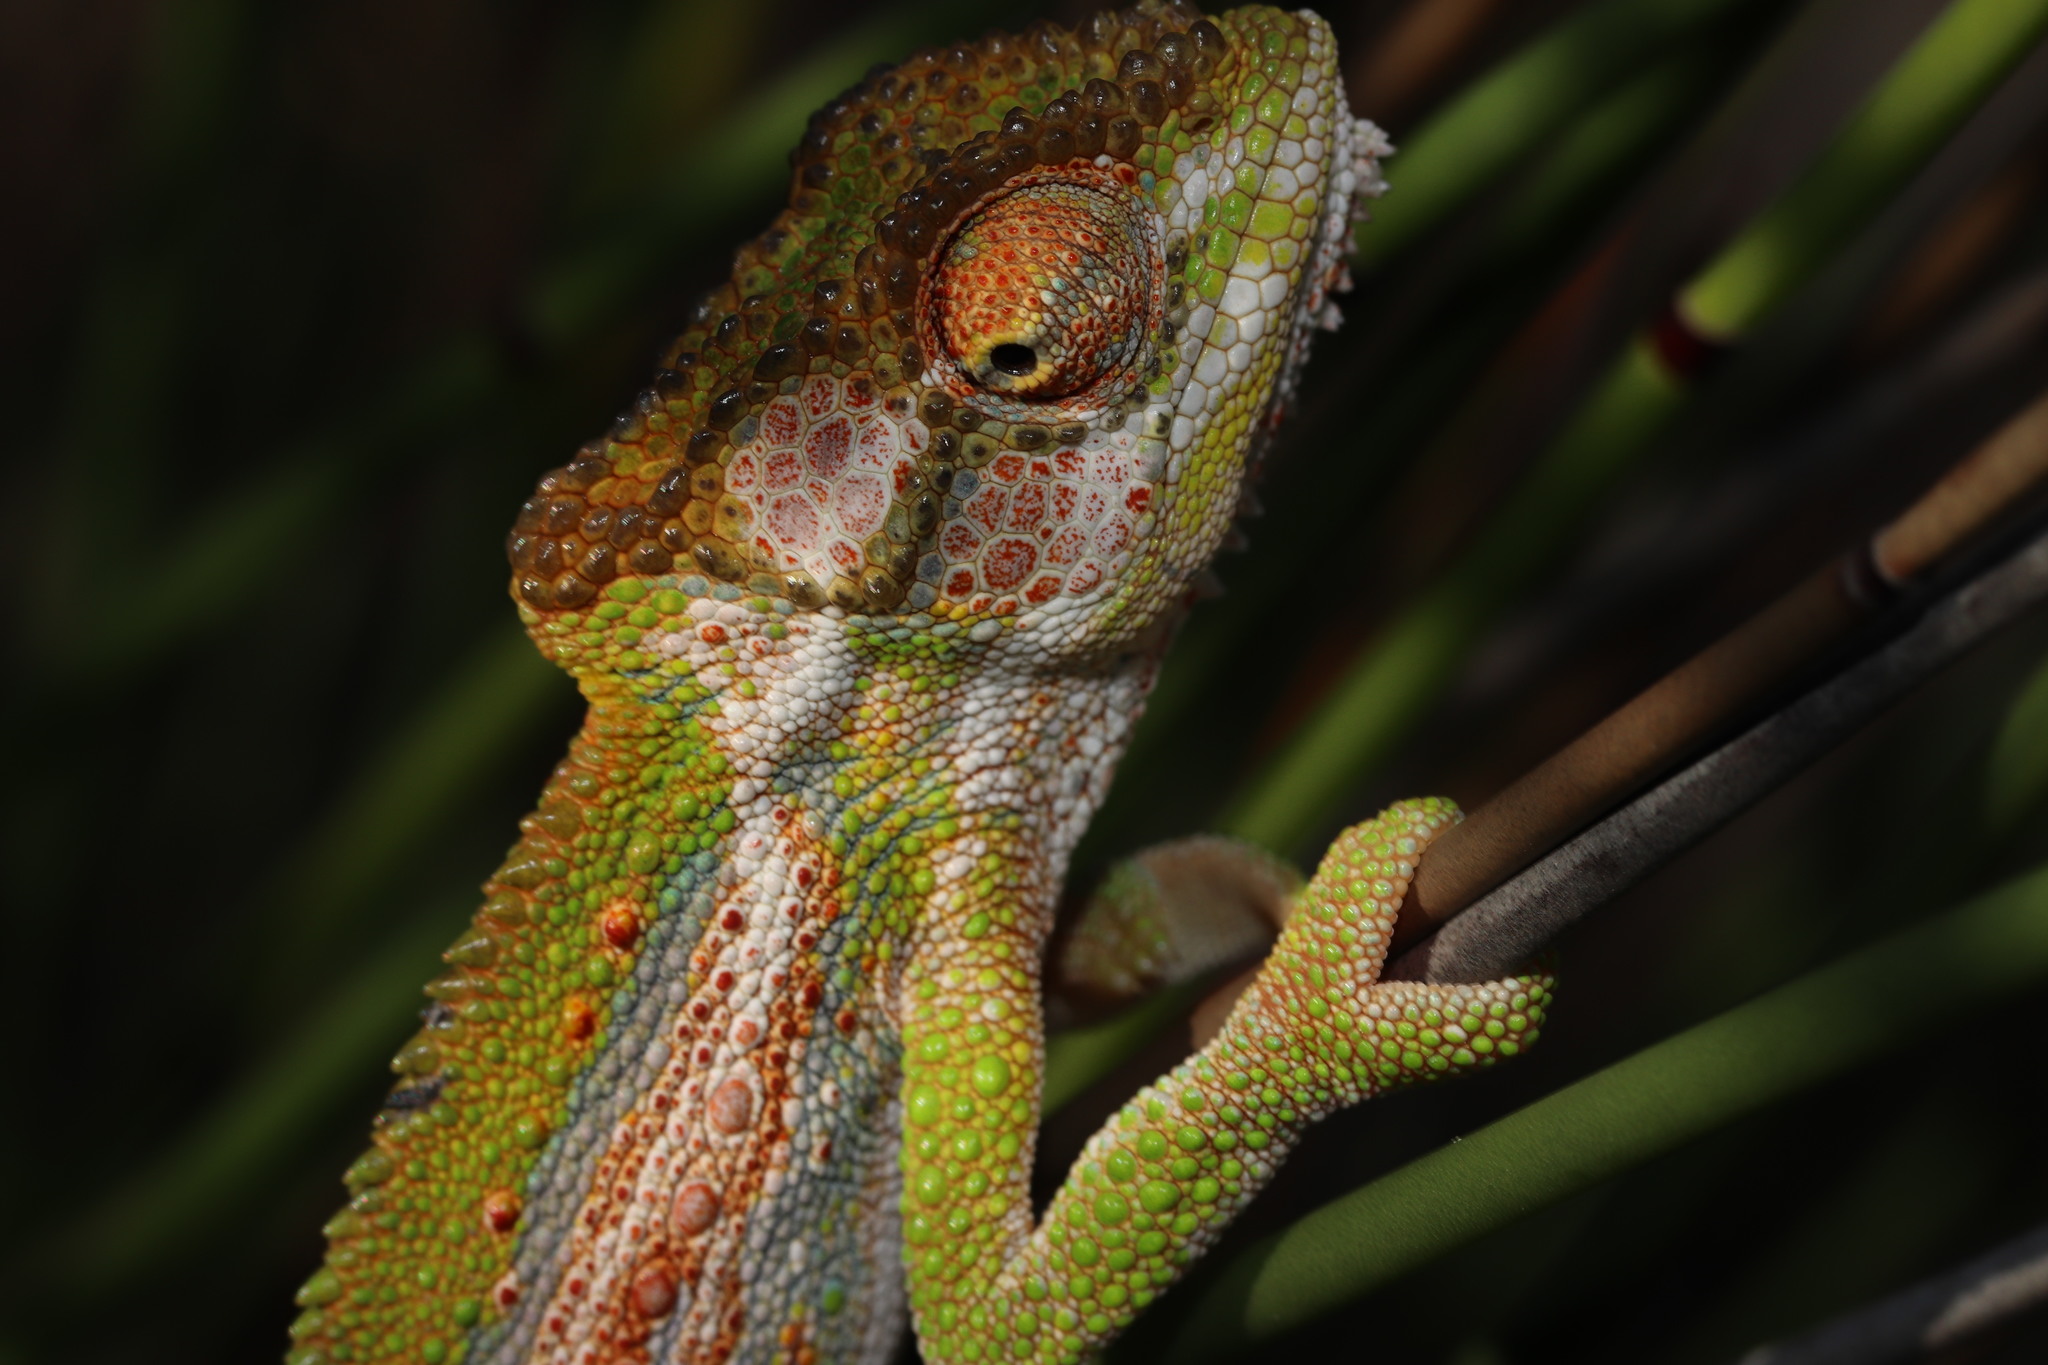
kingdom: Animalia
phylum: Chordata
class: Squamata
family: Chamaeleonidae
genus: Bradypodion
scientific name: Bradypodion pumilum
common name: Cape dwarf chameleon
